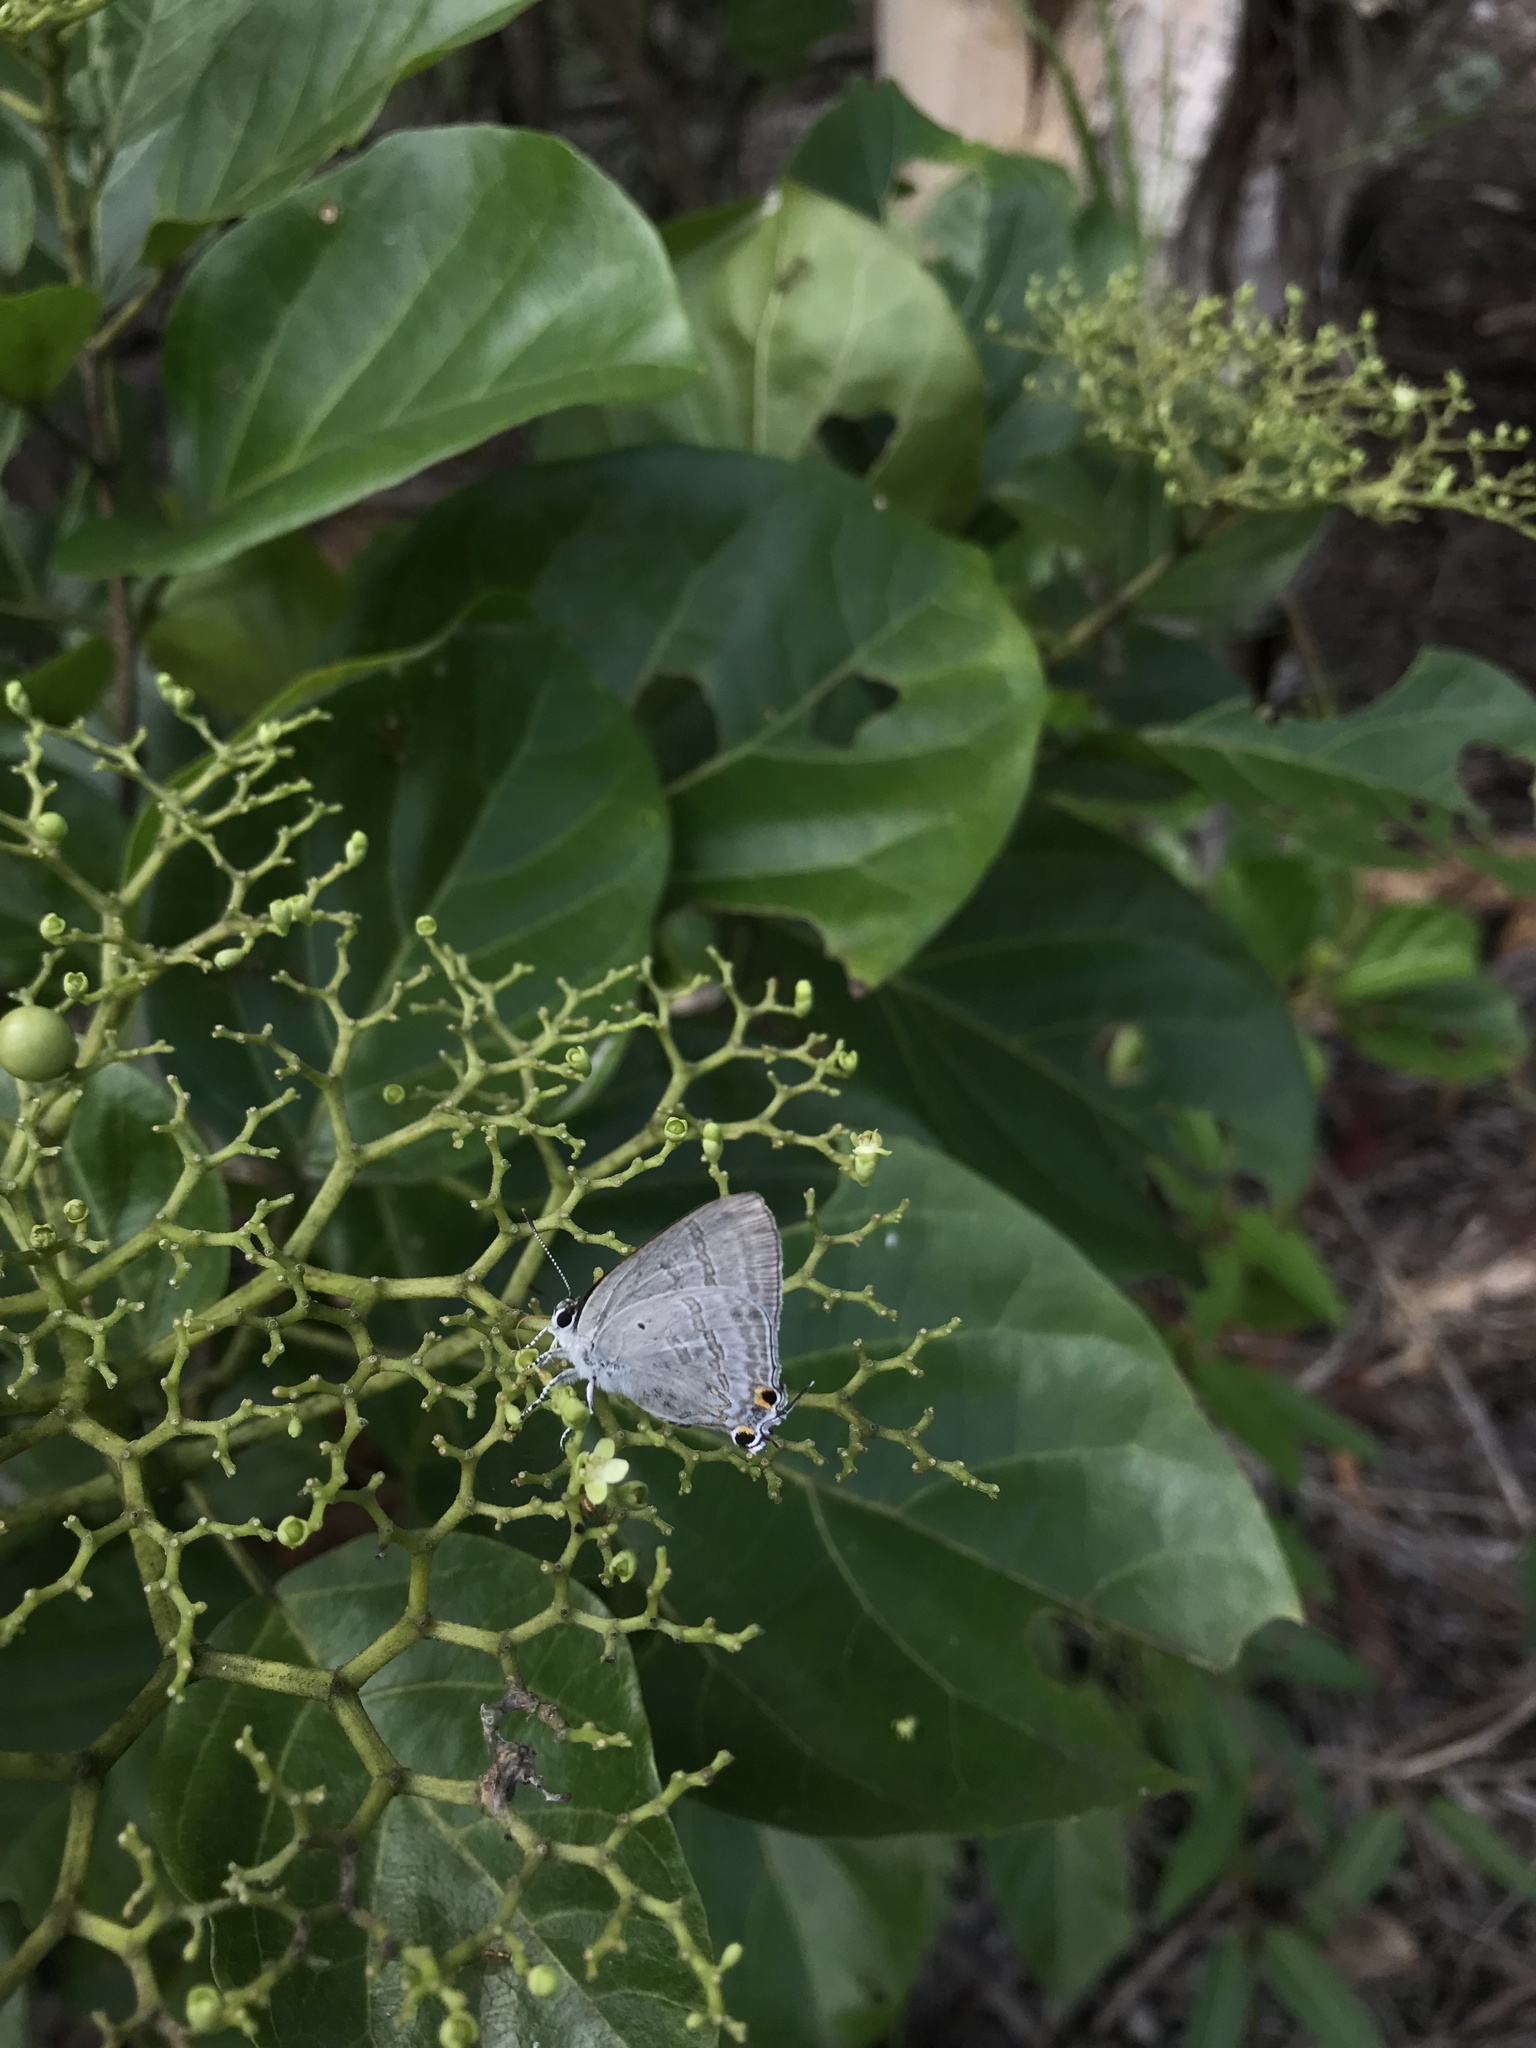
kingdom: Animalia
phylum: Arthropoda
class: Insecta
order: Lepidoptera
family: Lycaenidae
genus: Hypolycaena
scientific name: Hypolycaena phorbas
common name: Black-spotted flash
